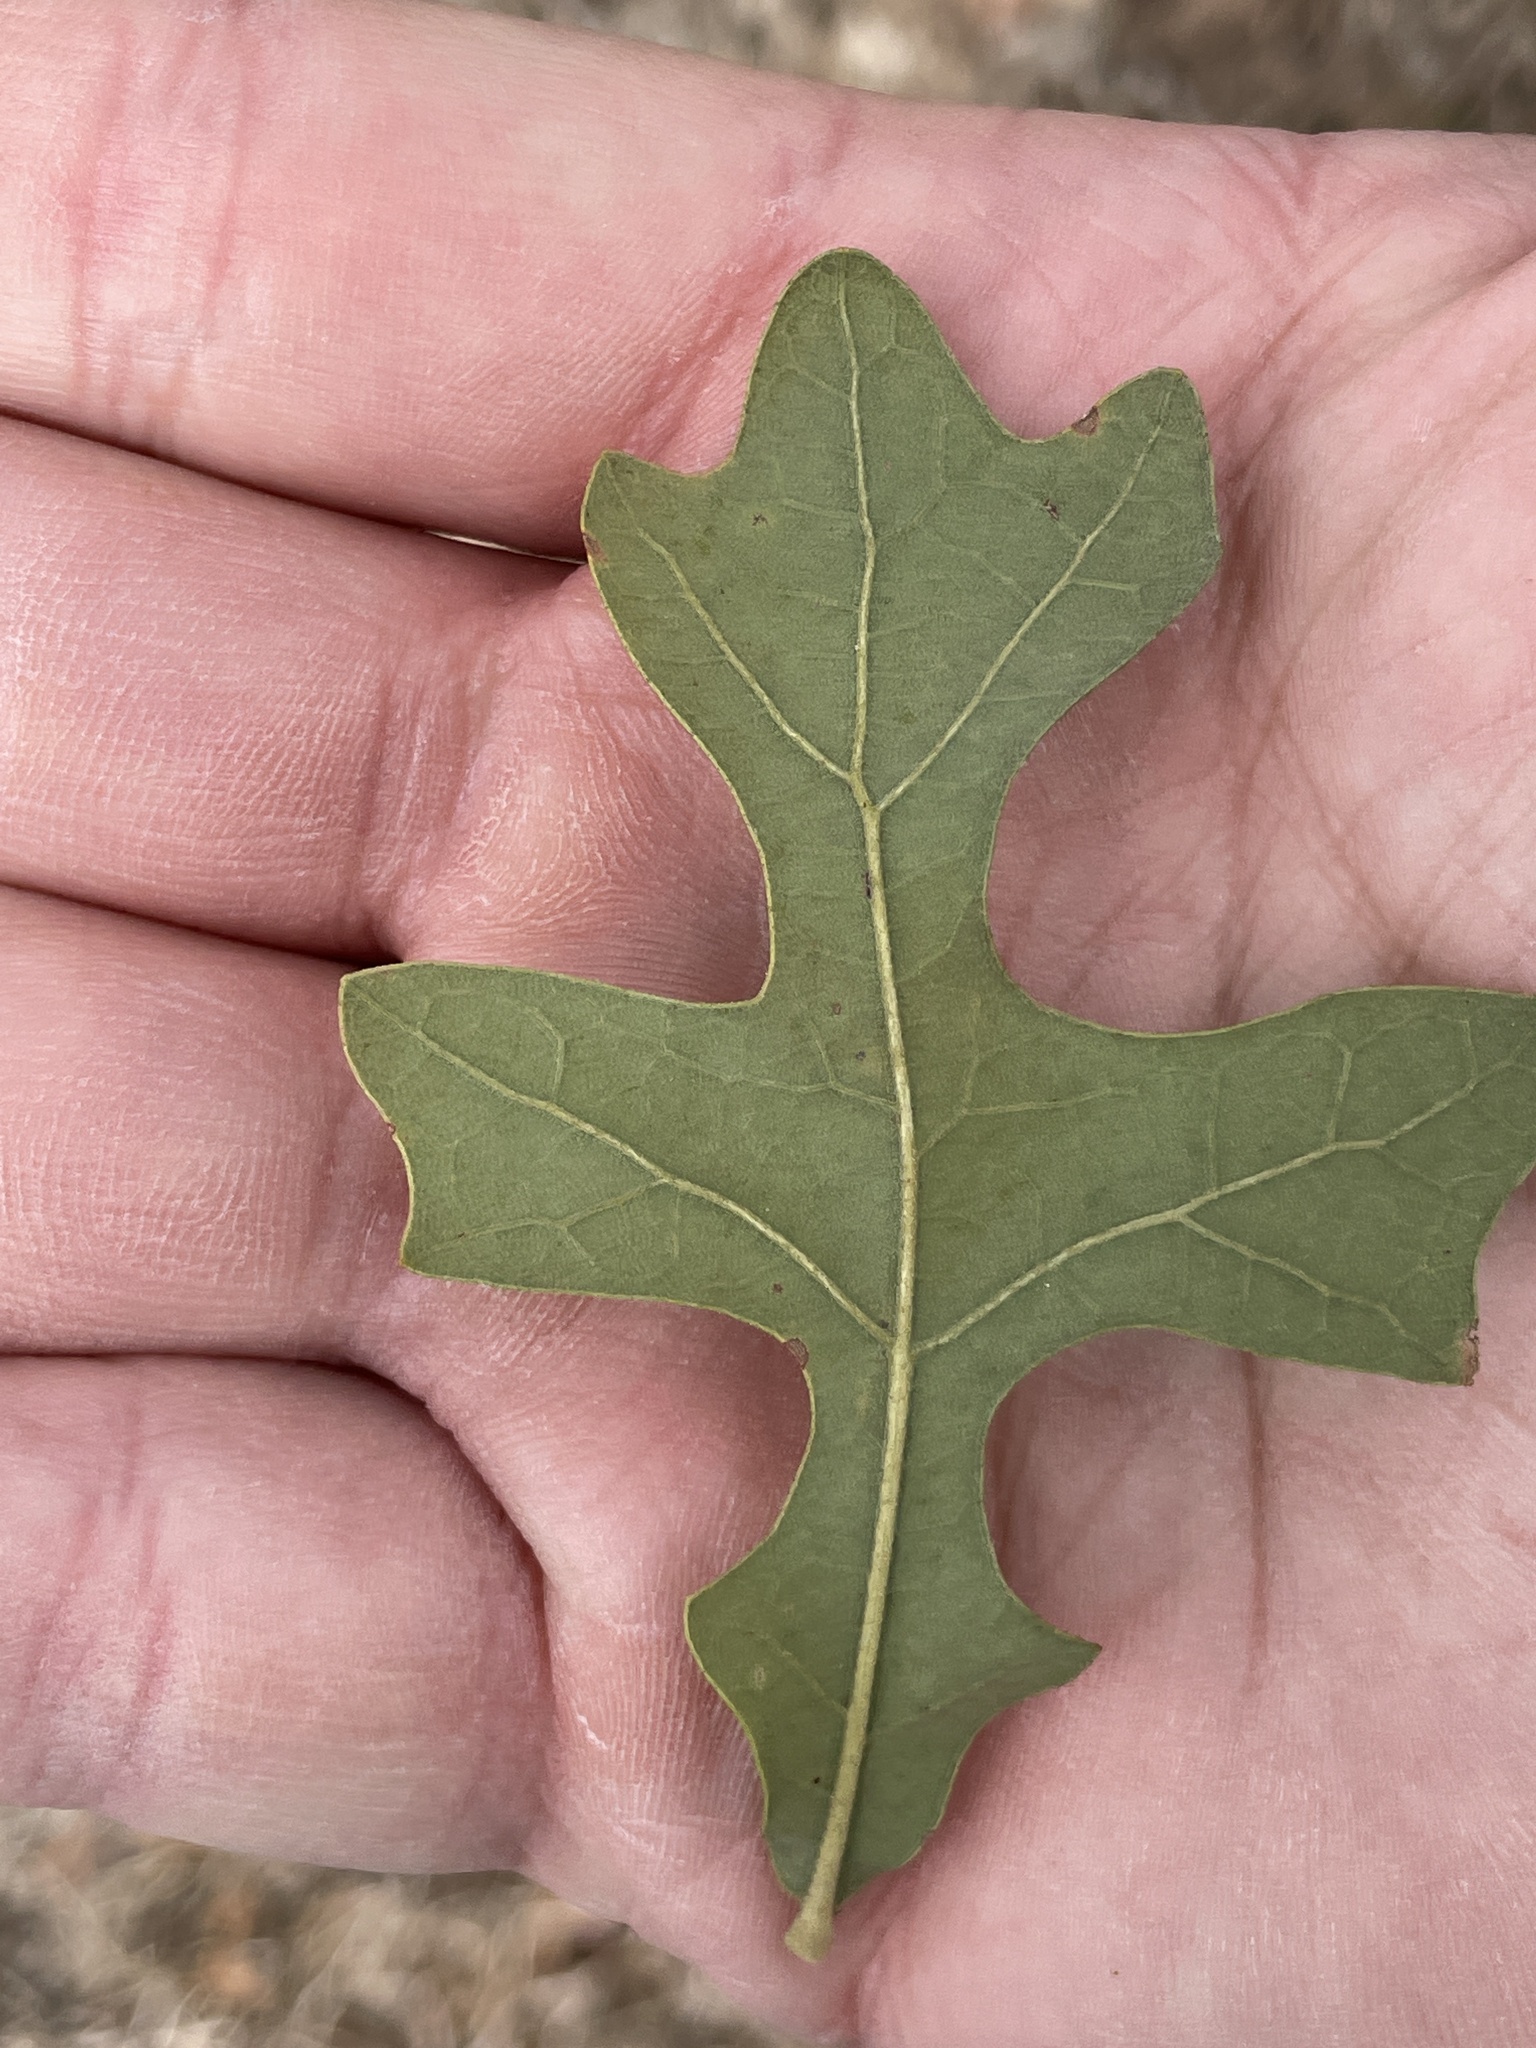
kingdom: Plantae
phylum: Tracheophyta
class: Magnoliopsida
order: Fagales
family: Fagaceae
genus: Quercus
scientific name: Quercus stellata
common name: Post oak
